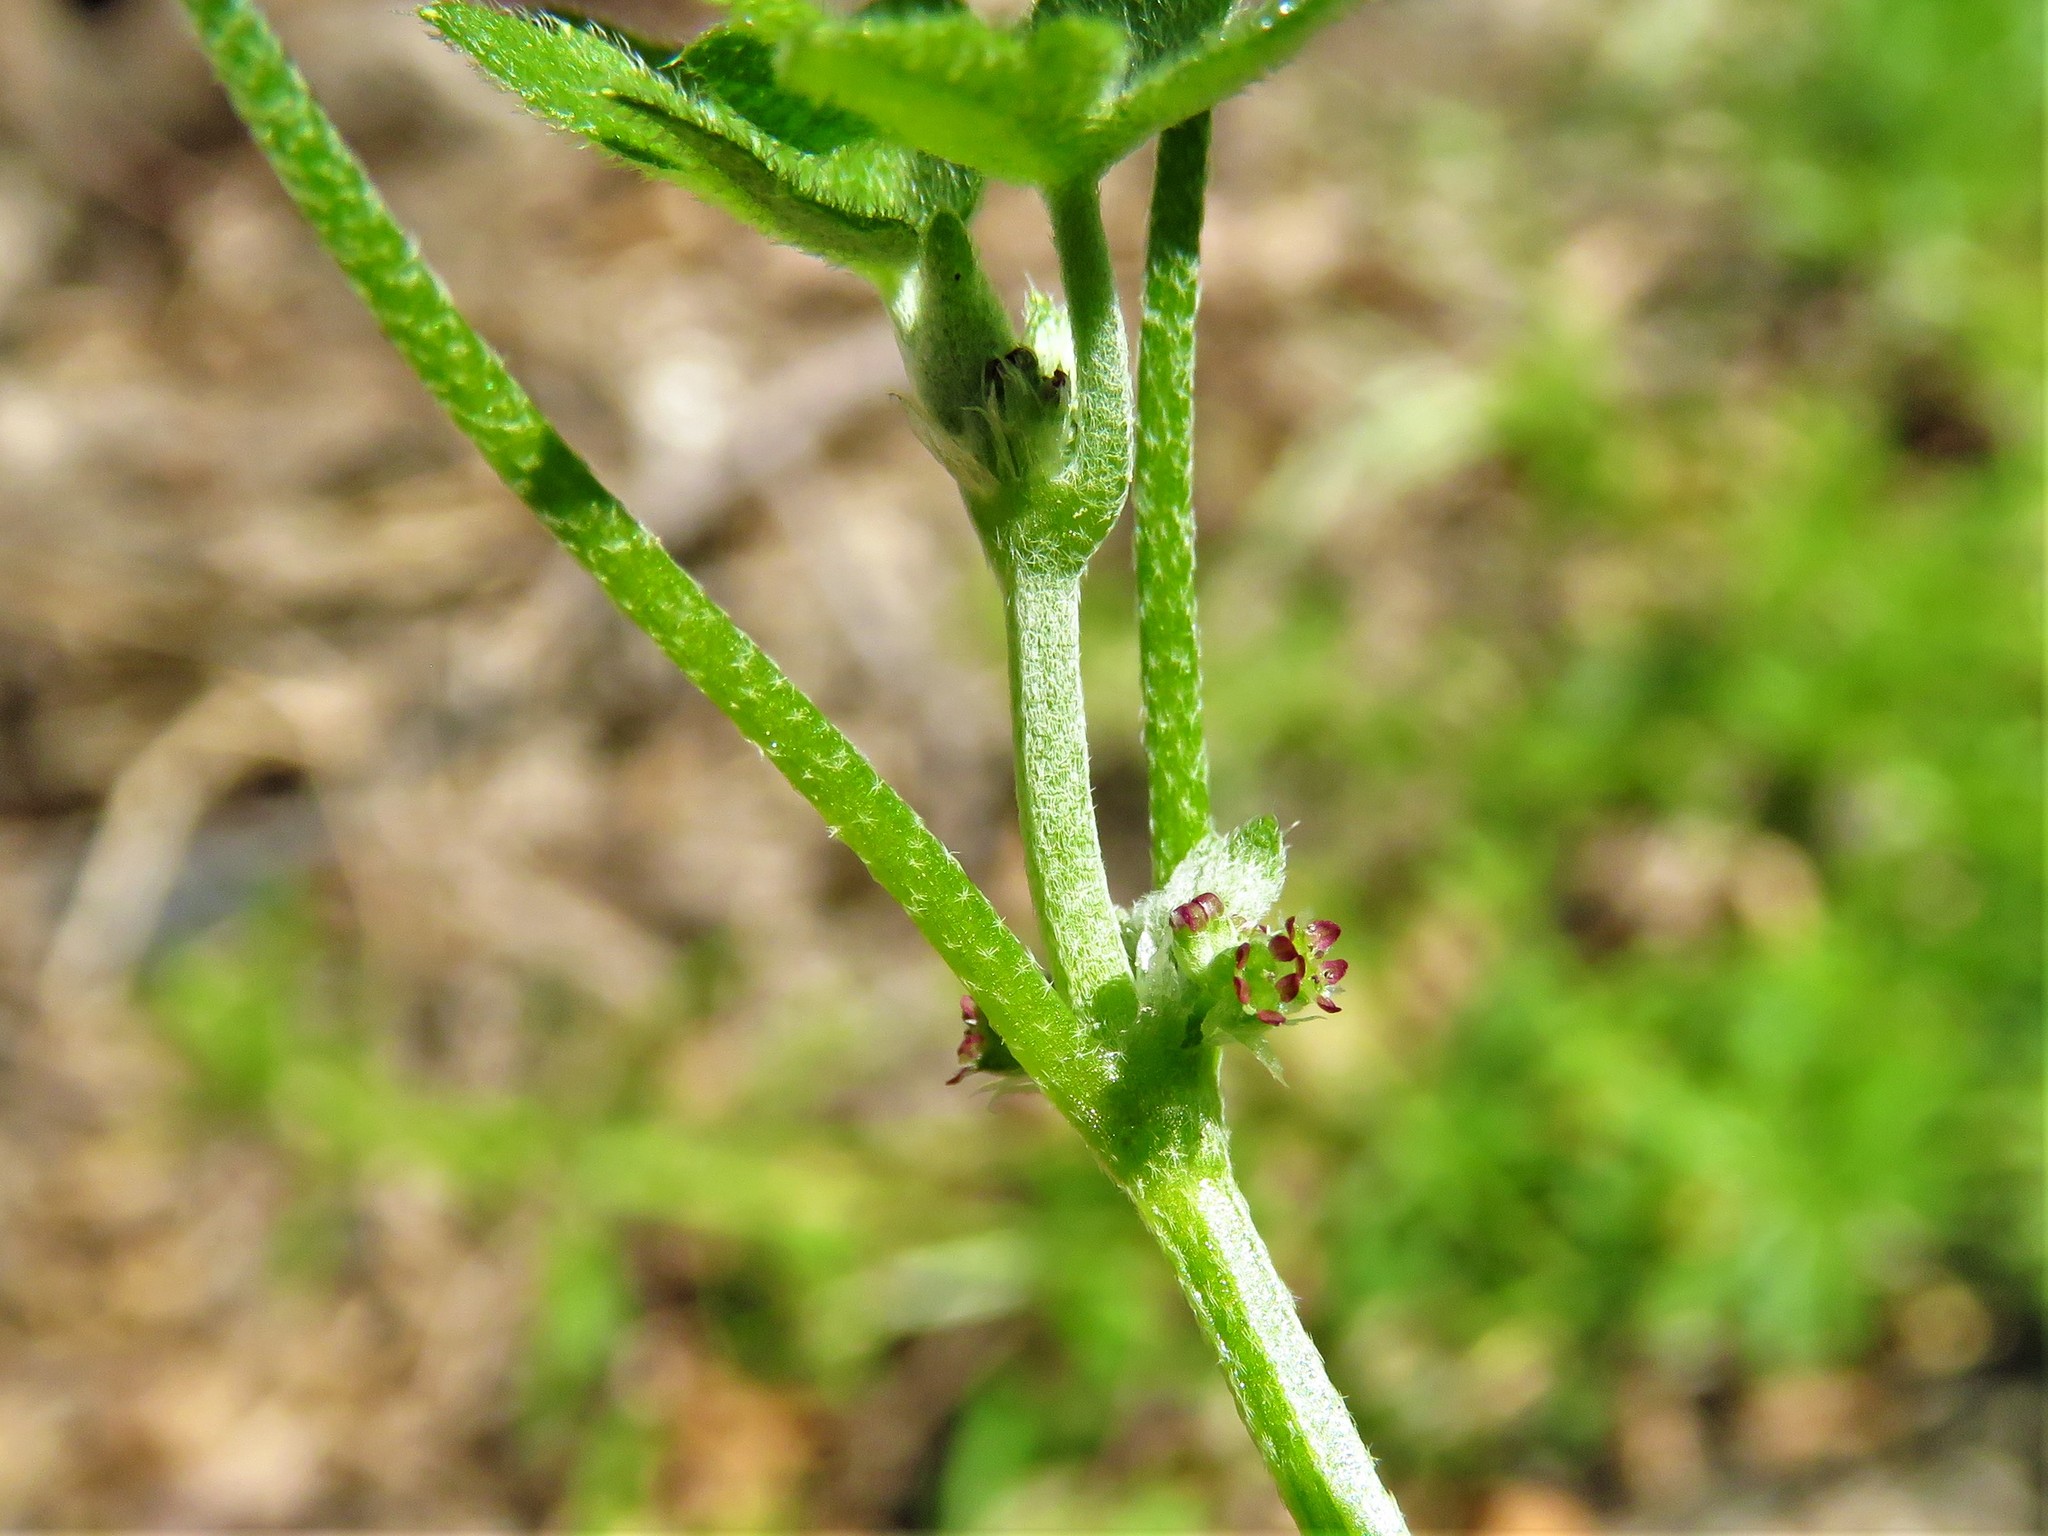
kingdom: Plantae
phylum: Tracheophyta
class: Magnoliopsida
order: Apiales
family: Apiaceae
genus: Bowlesia
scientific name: Bowlesia incana
